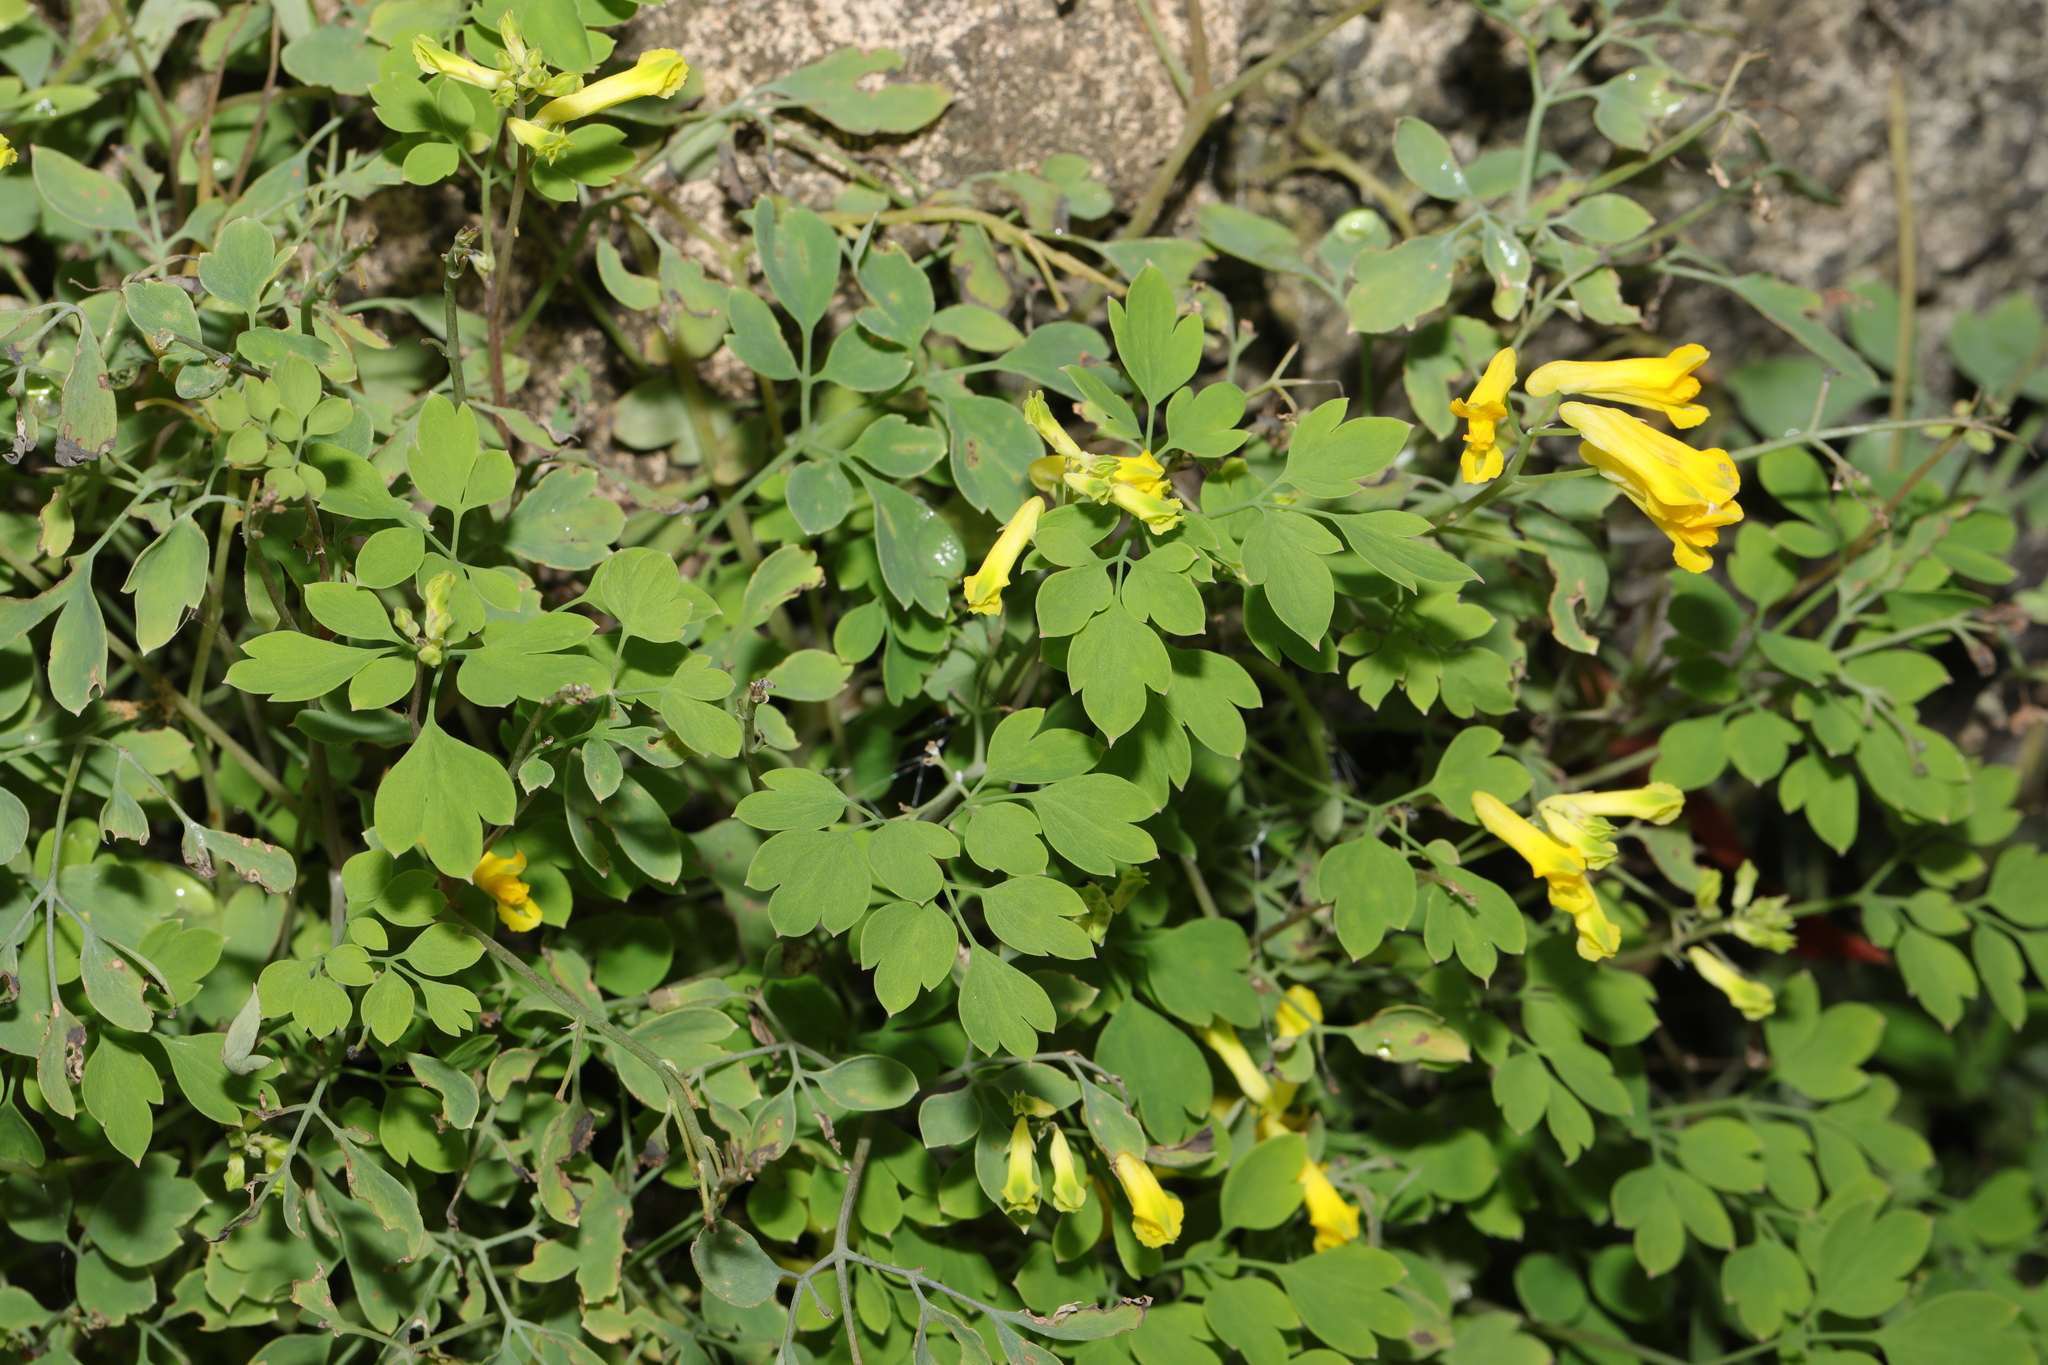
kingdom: Plantae
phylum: Tracheophyta
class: Magnoliopsida
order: Ranunculales
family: Papaveraceae
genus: Pseudofumaria
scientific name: Pseudofumaria lutea
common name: Yellow corydalis
